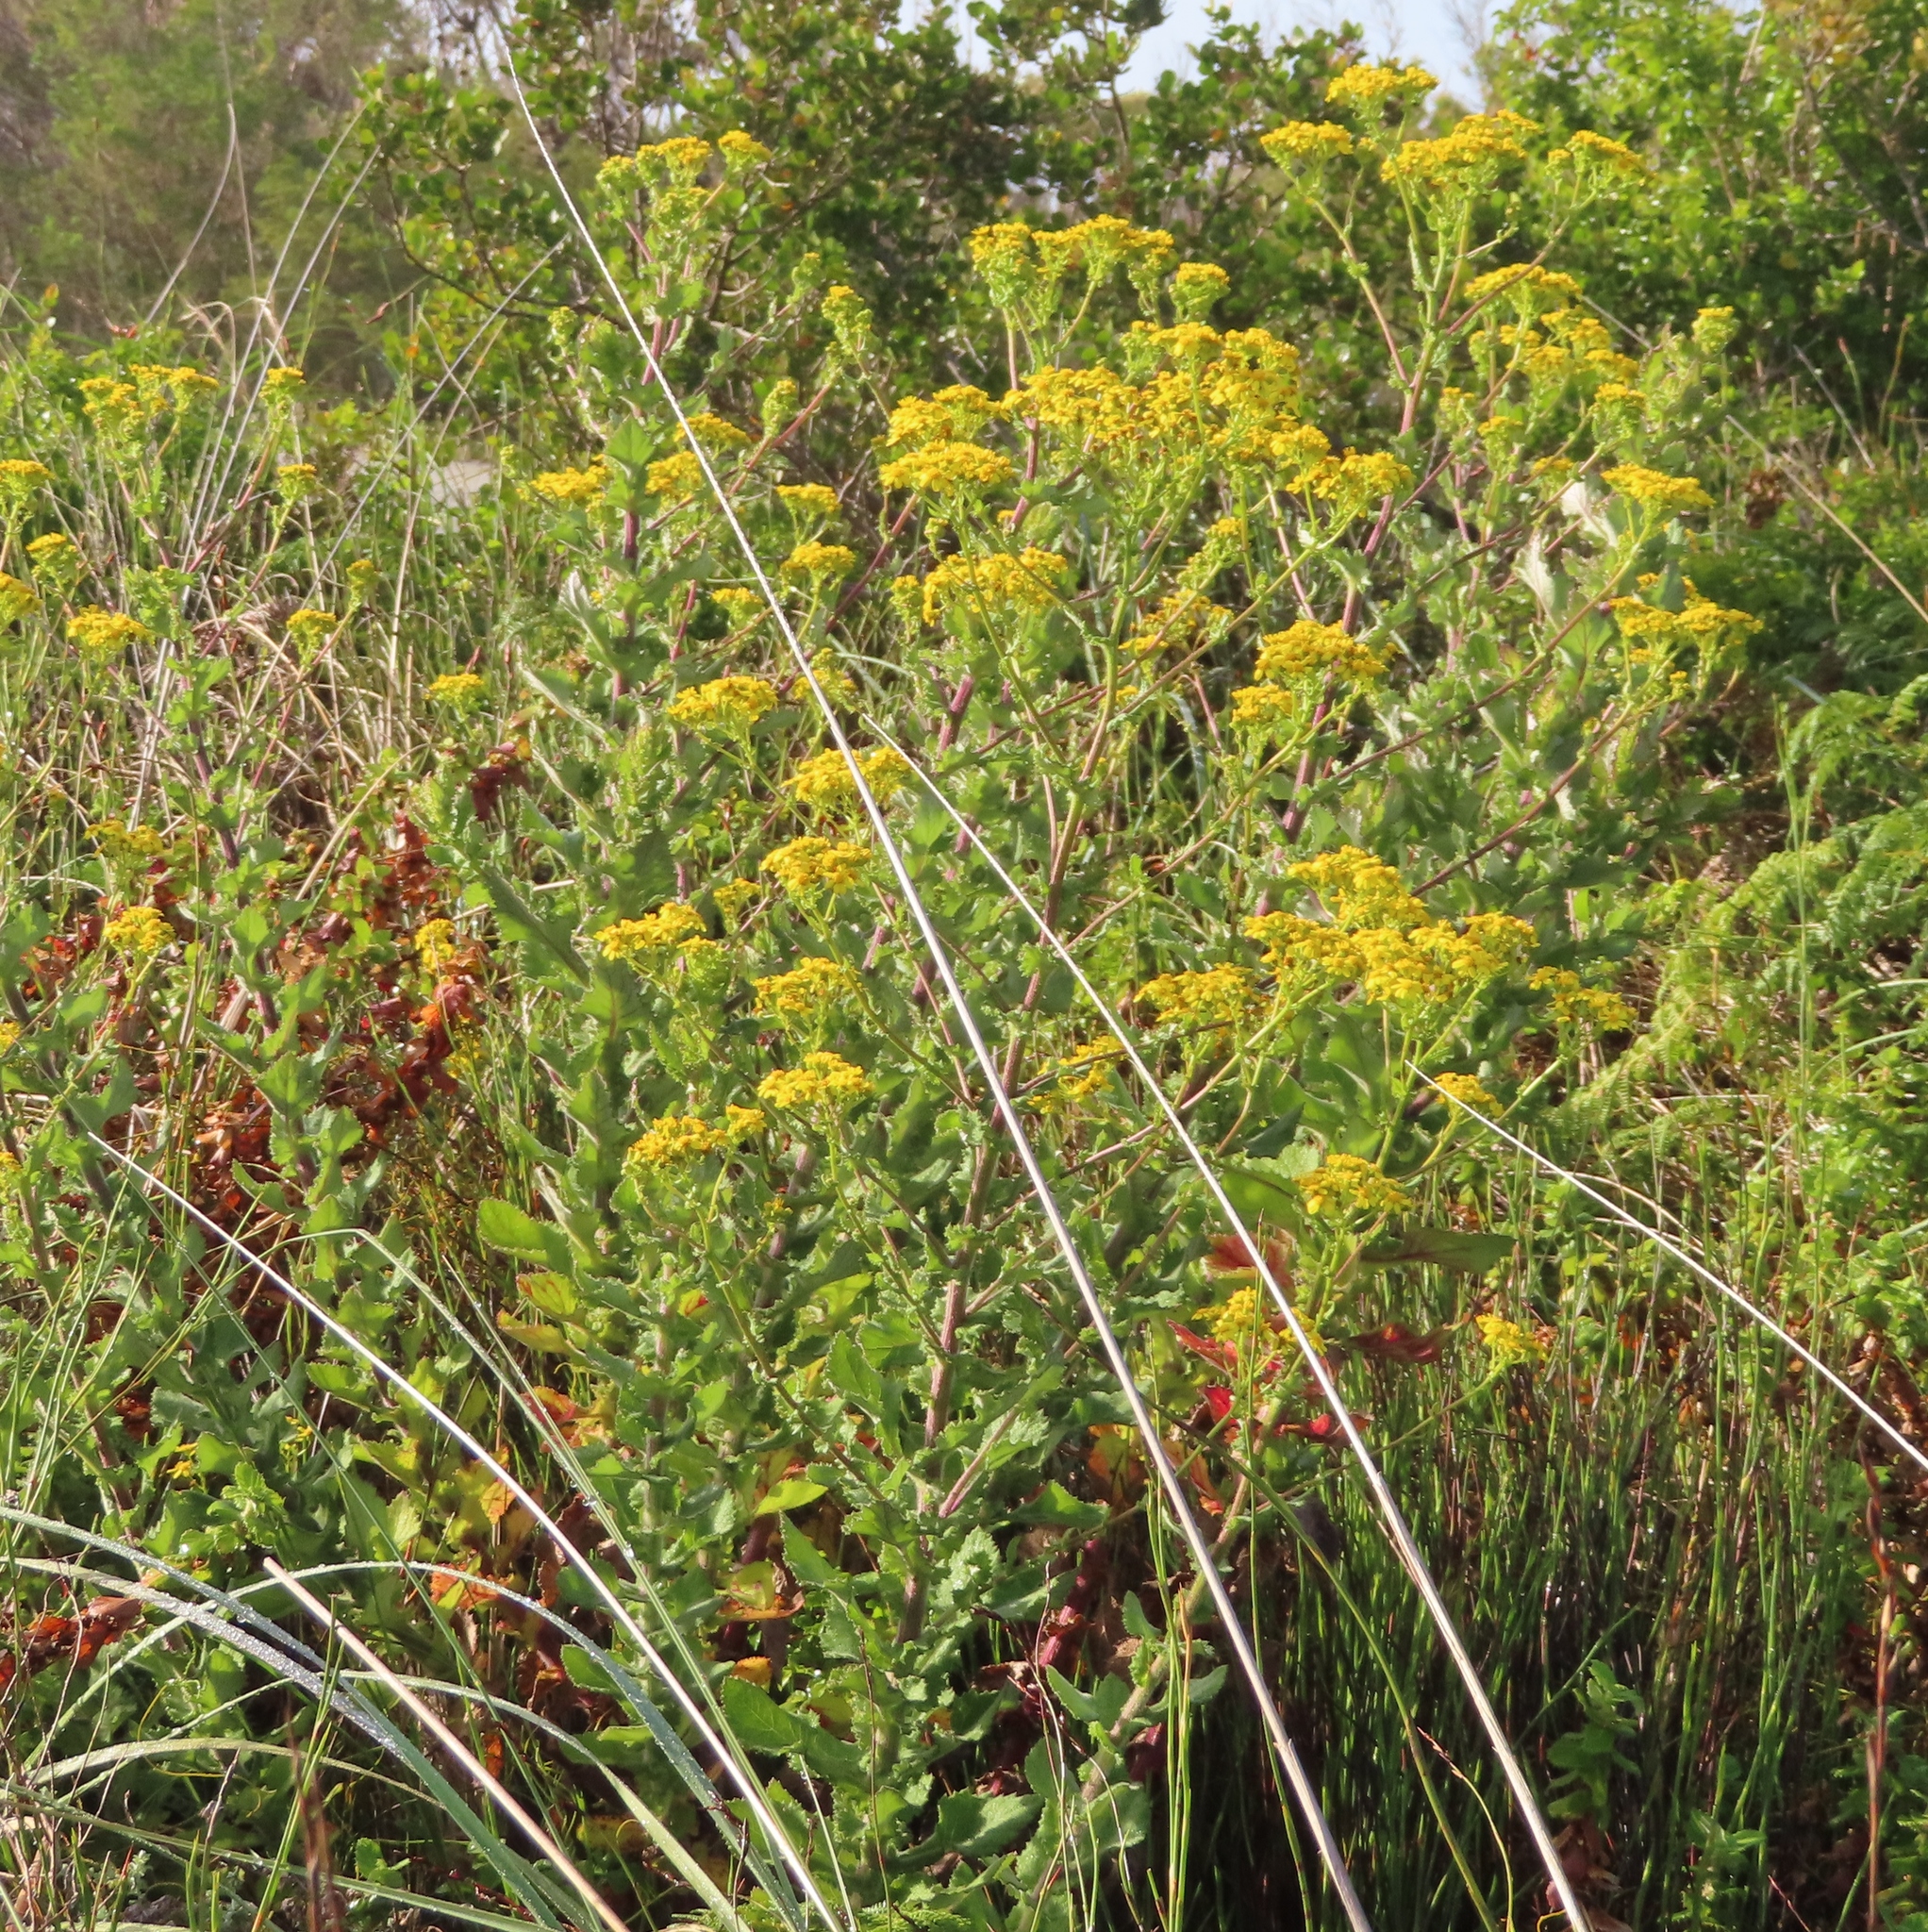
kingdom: Plantae
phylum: Tracheophyta
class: Magnoliopsida
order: Asterales
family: Asteraceae
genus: Senecio
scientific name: Senecio subcanescens
